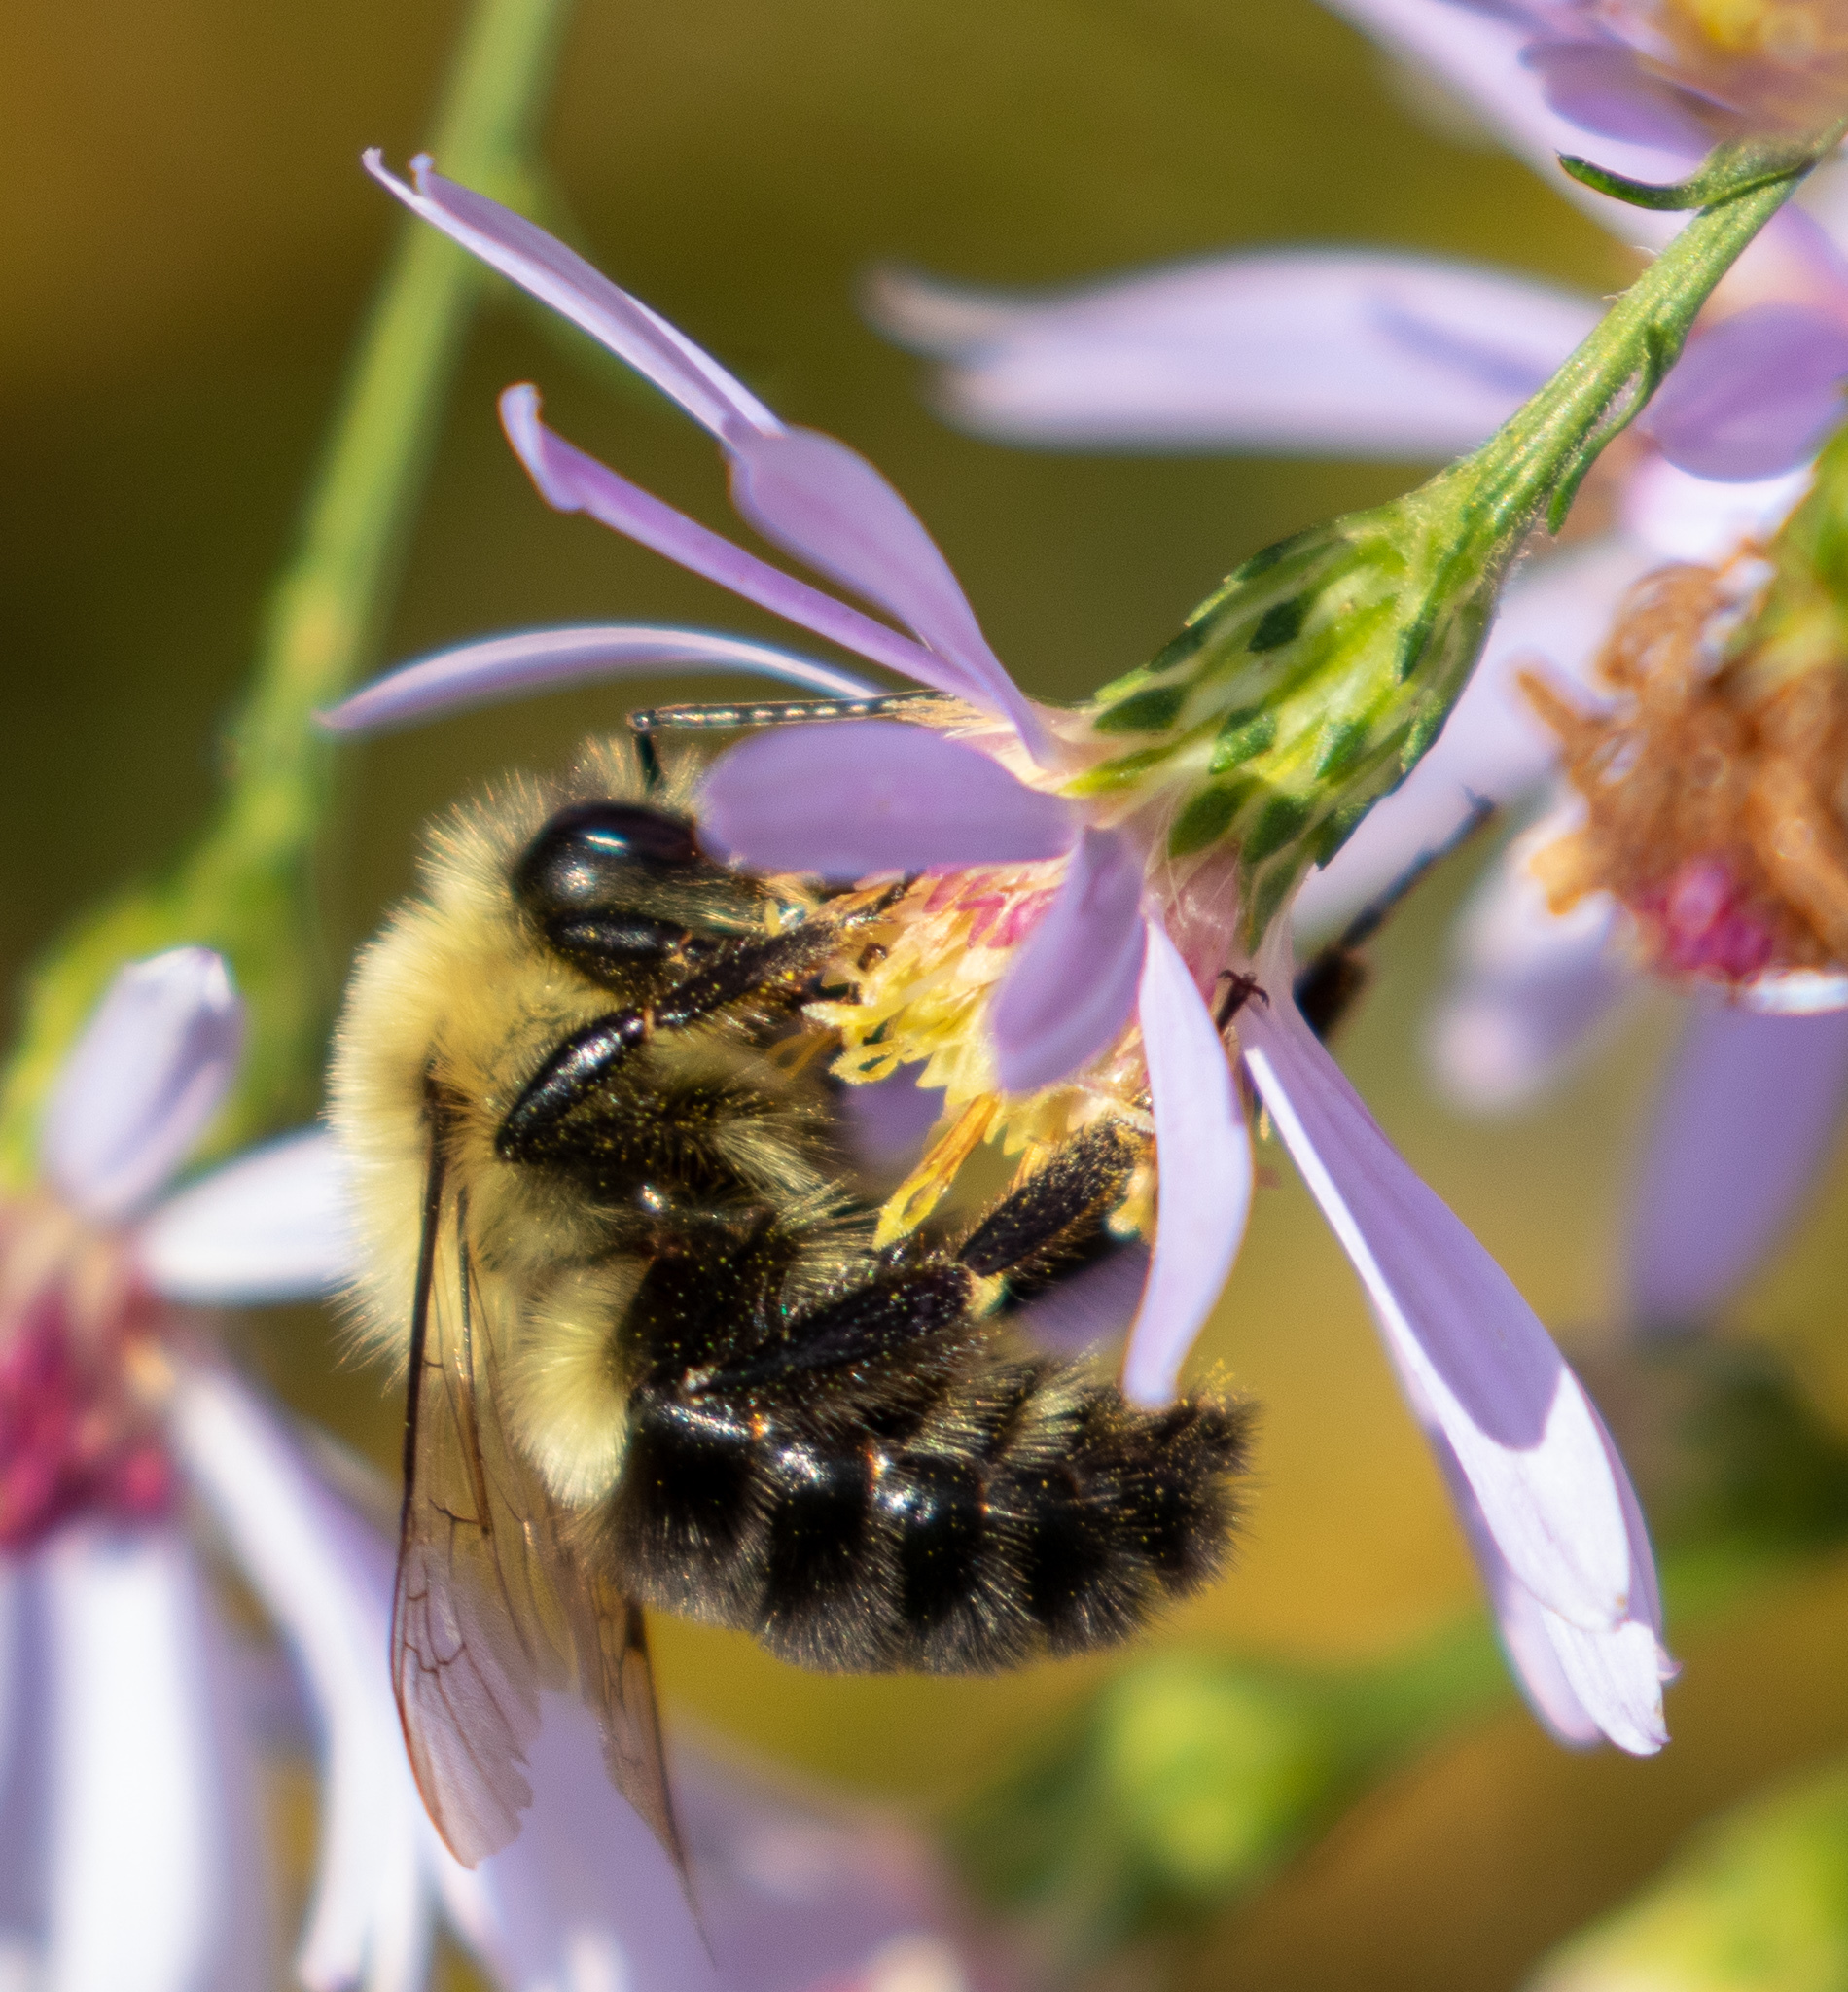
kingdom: Animalia
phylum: Arthropoda
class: Insecta
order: Hymenoptera
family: Apidae
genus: Bombus
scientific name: Bombus impatiens
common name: Common eastern bumble bee
